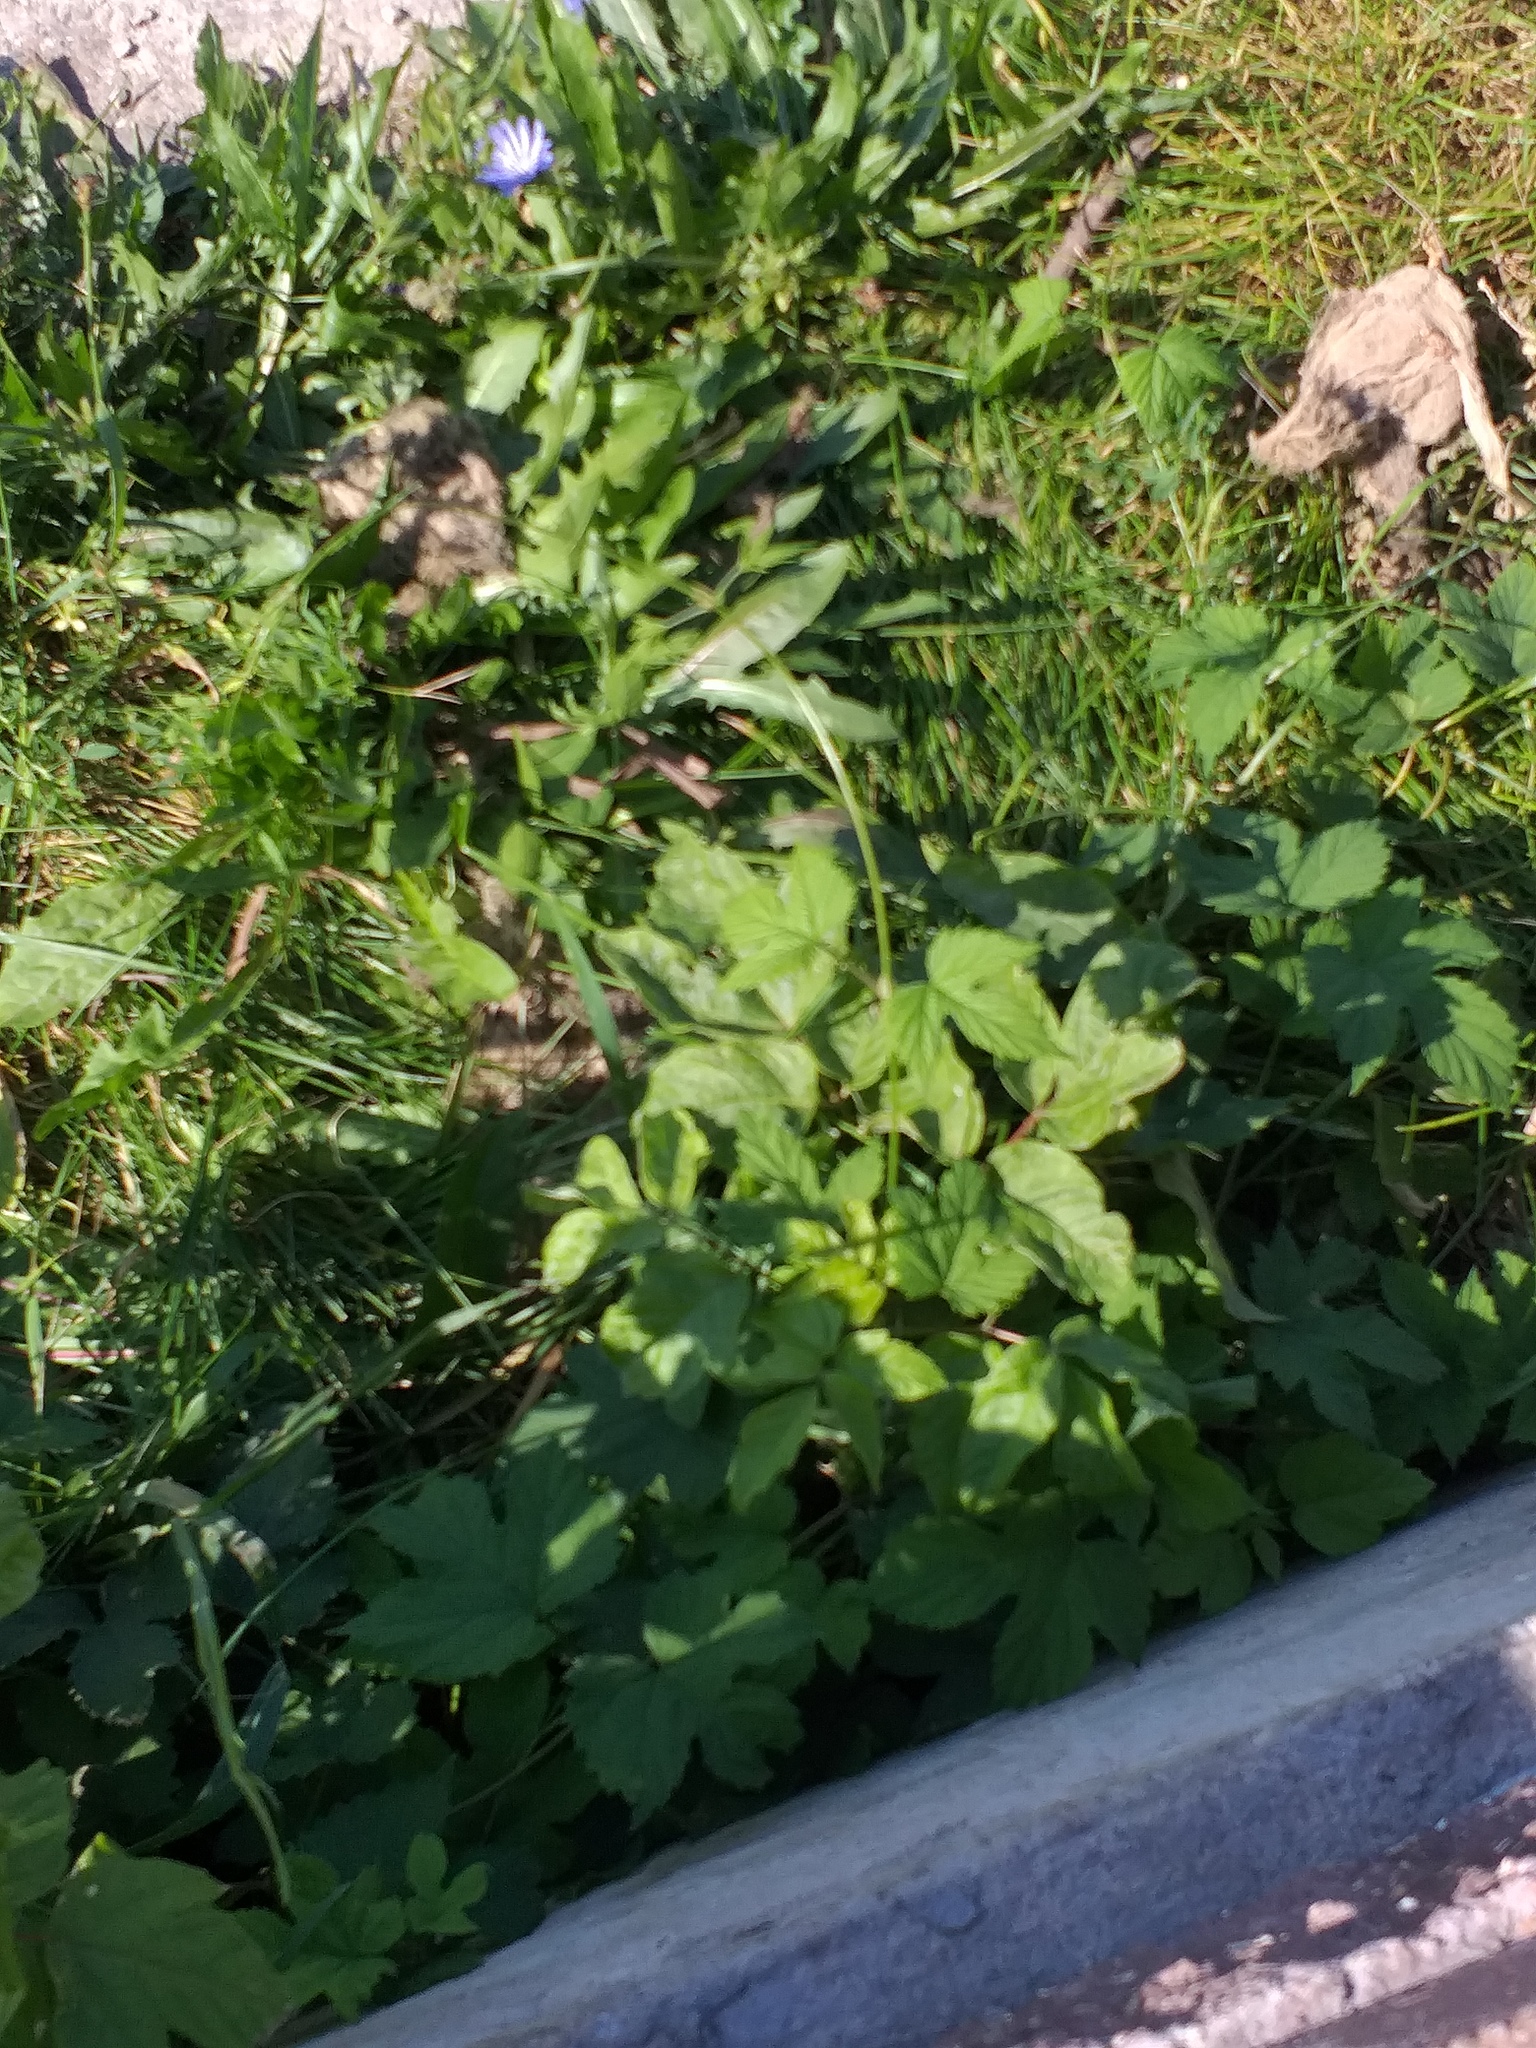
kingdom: Plantae
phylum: Tracheophyta
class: Magnoliopsida
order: Rosales
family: Cannabaceae
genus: Humulus
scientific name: Humulus lupulus
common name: Hop
